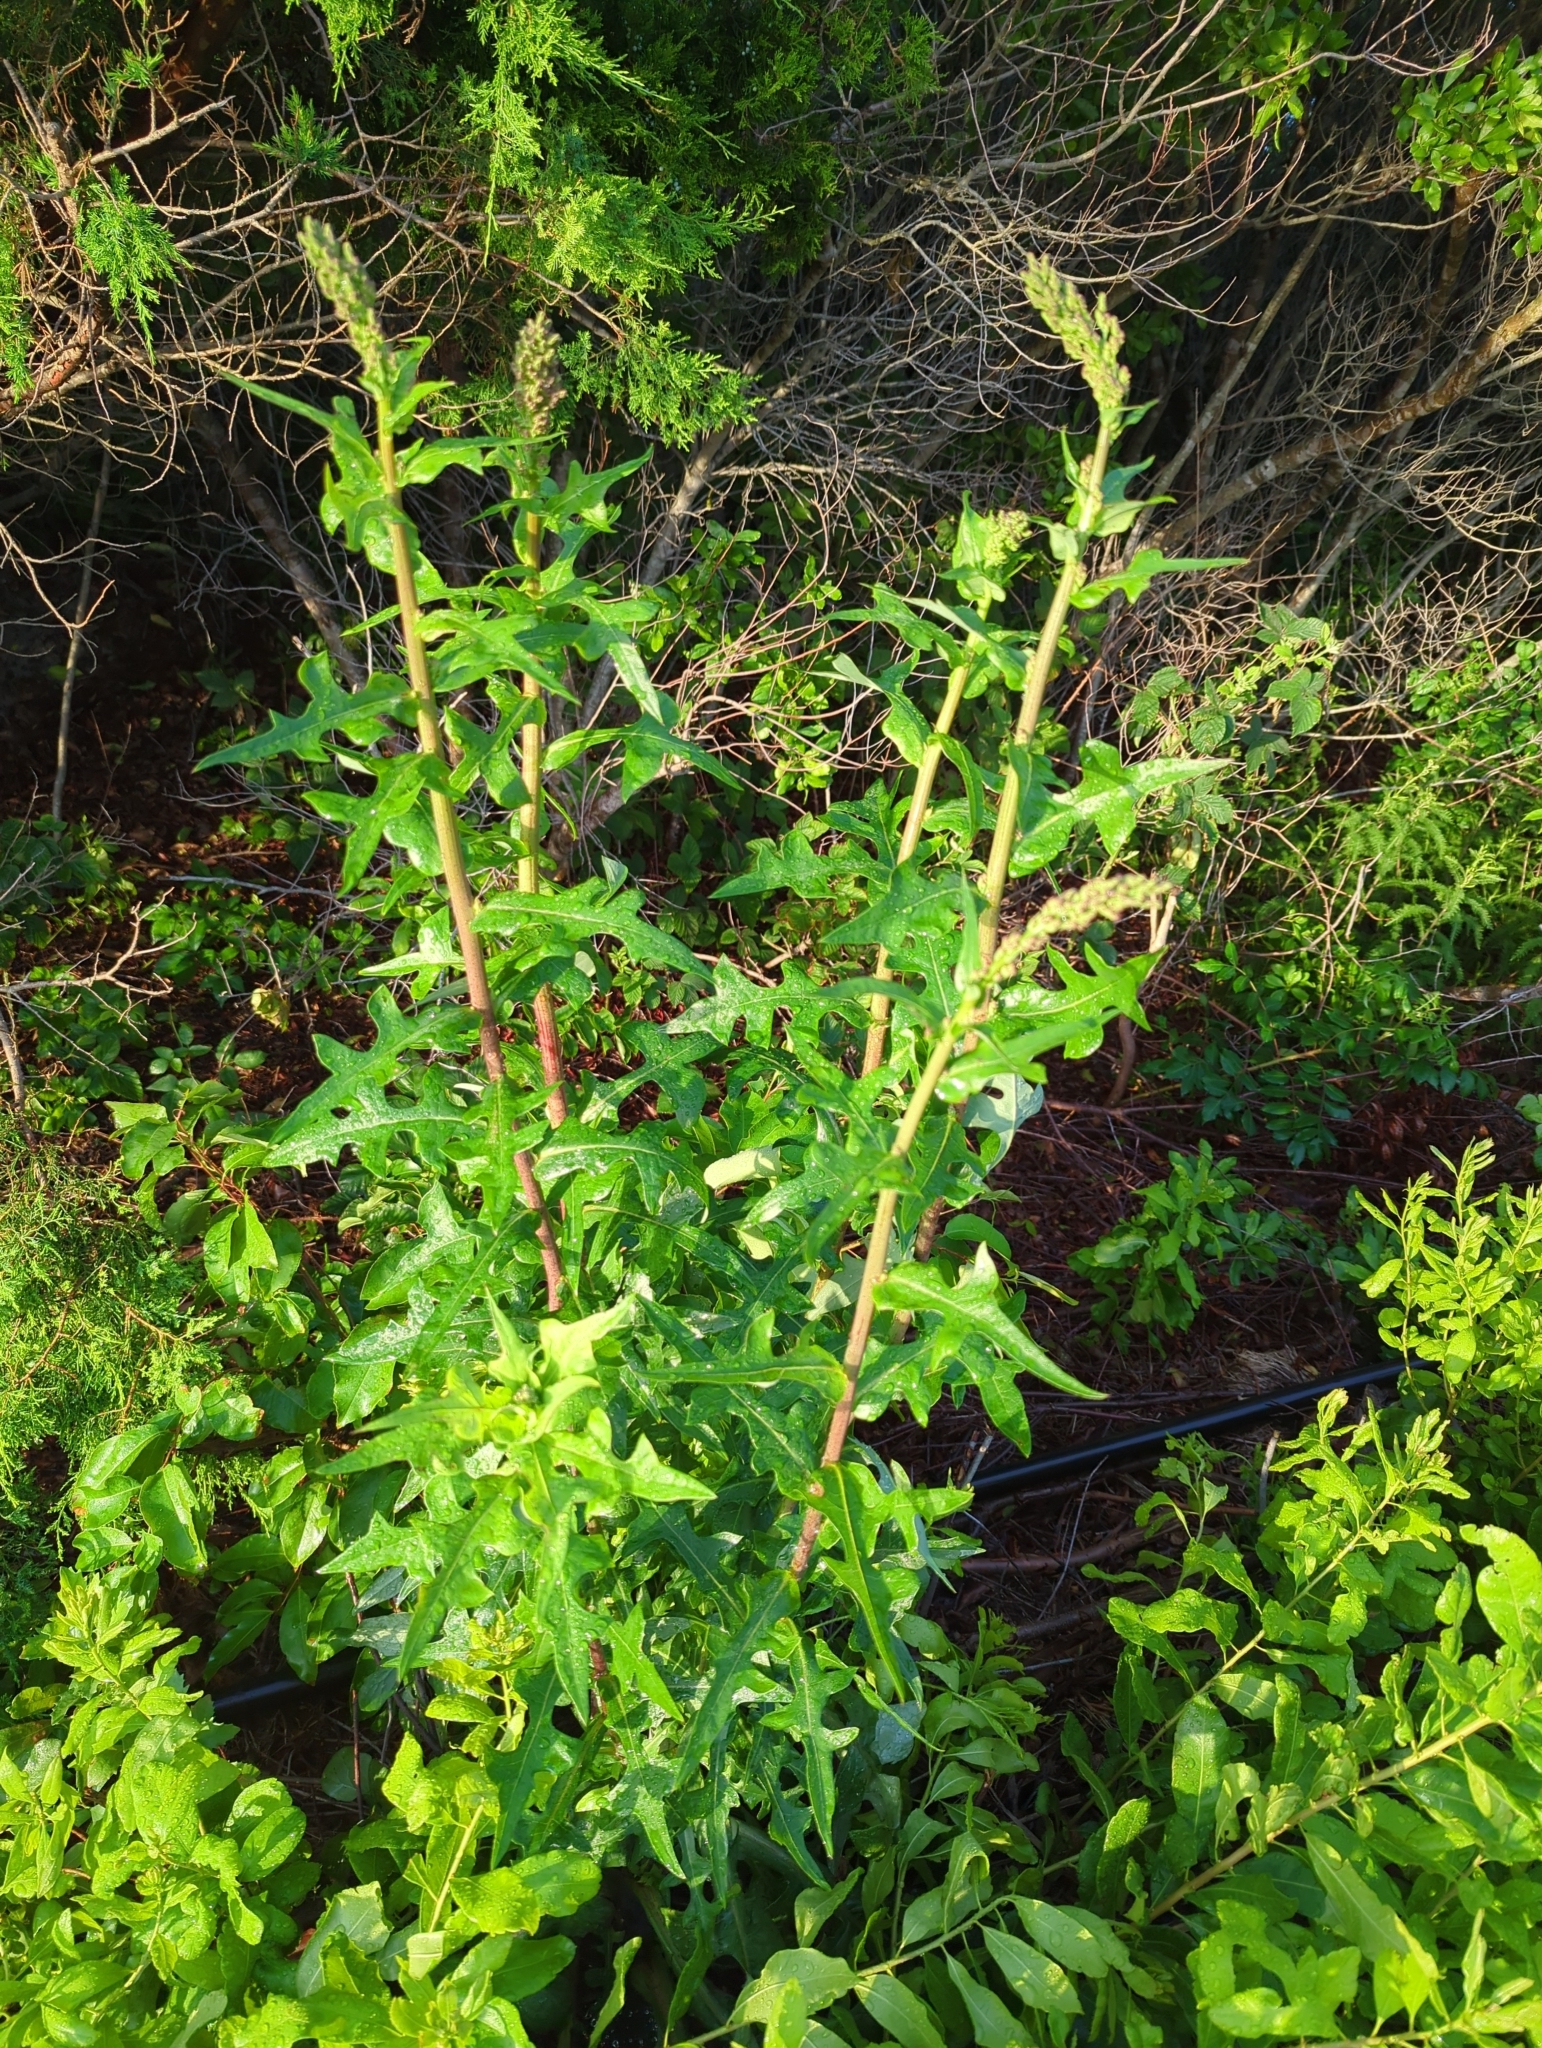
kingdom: Plantae
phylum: Tracheophyta
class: Magnoliopsida
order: Asterales
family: Asteraceae
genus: Lactuca
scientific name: Lactuca canadensis
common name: Canada lettuce
